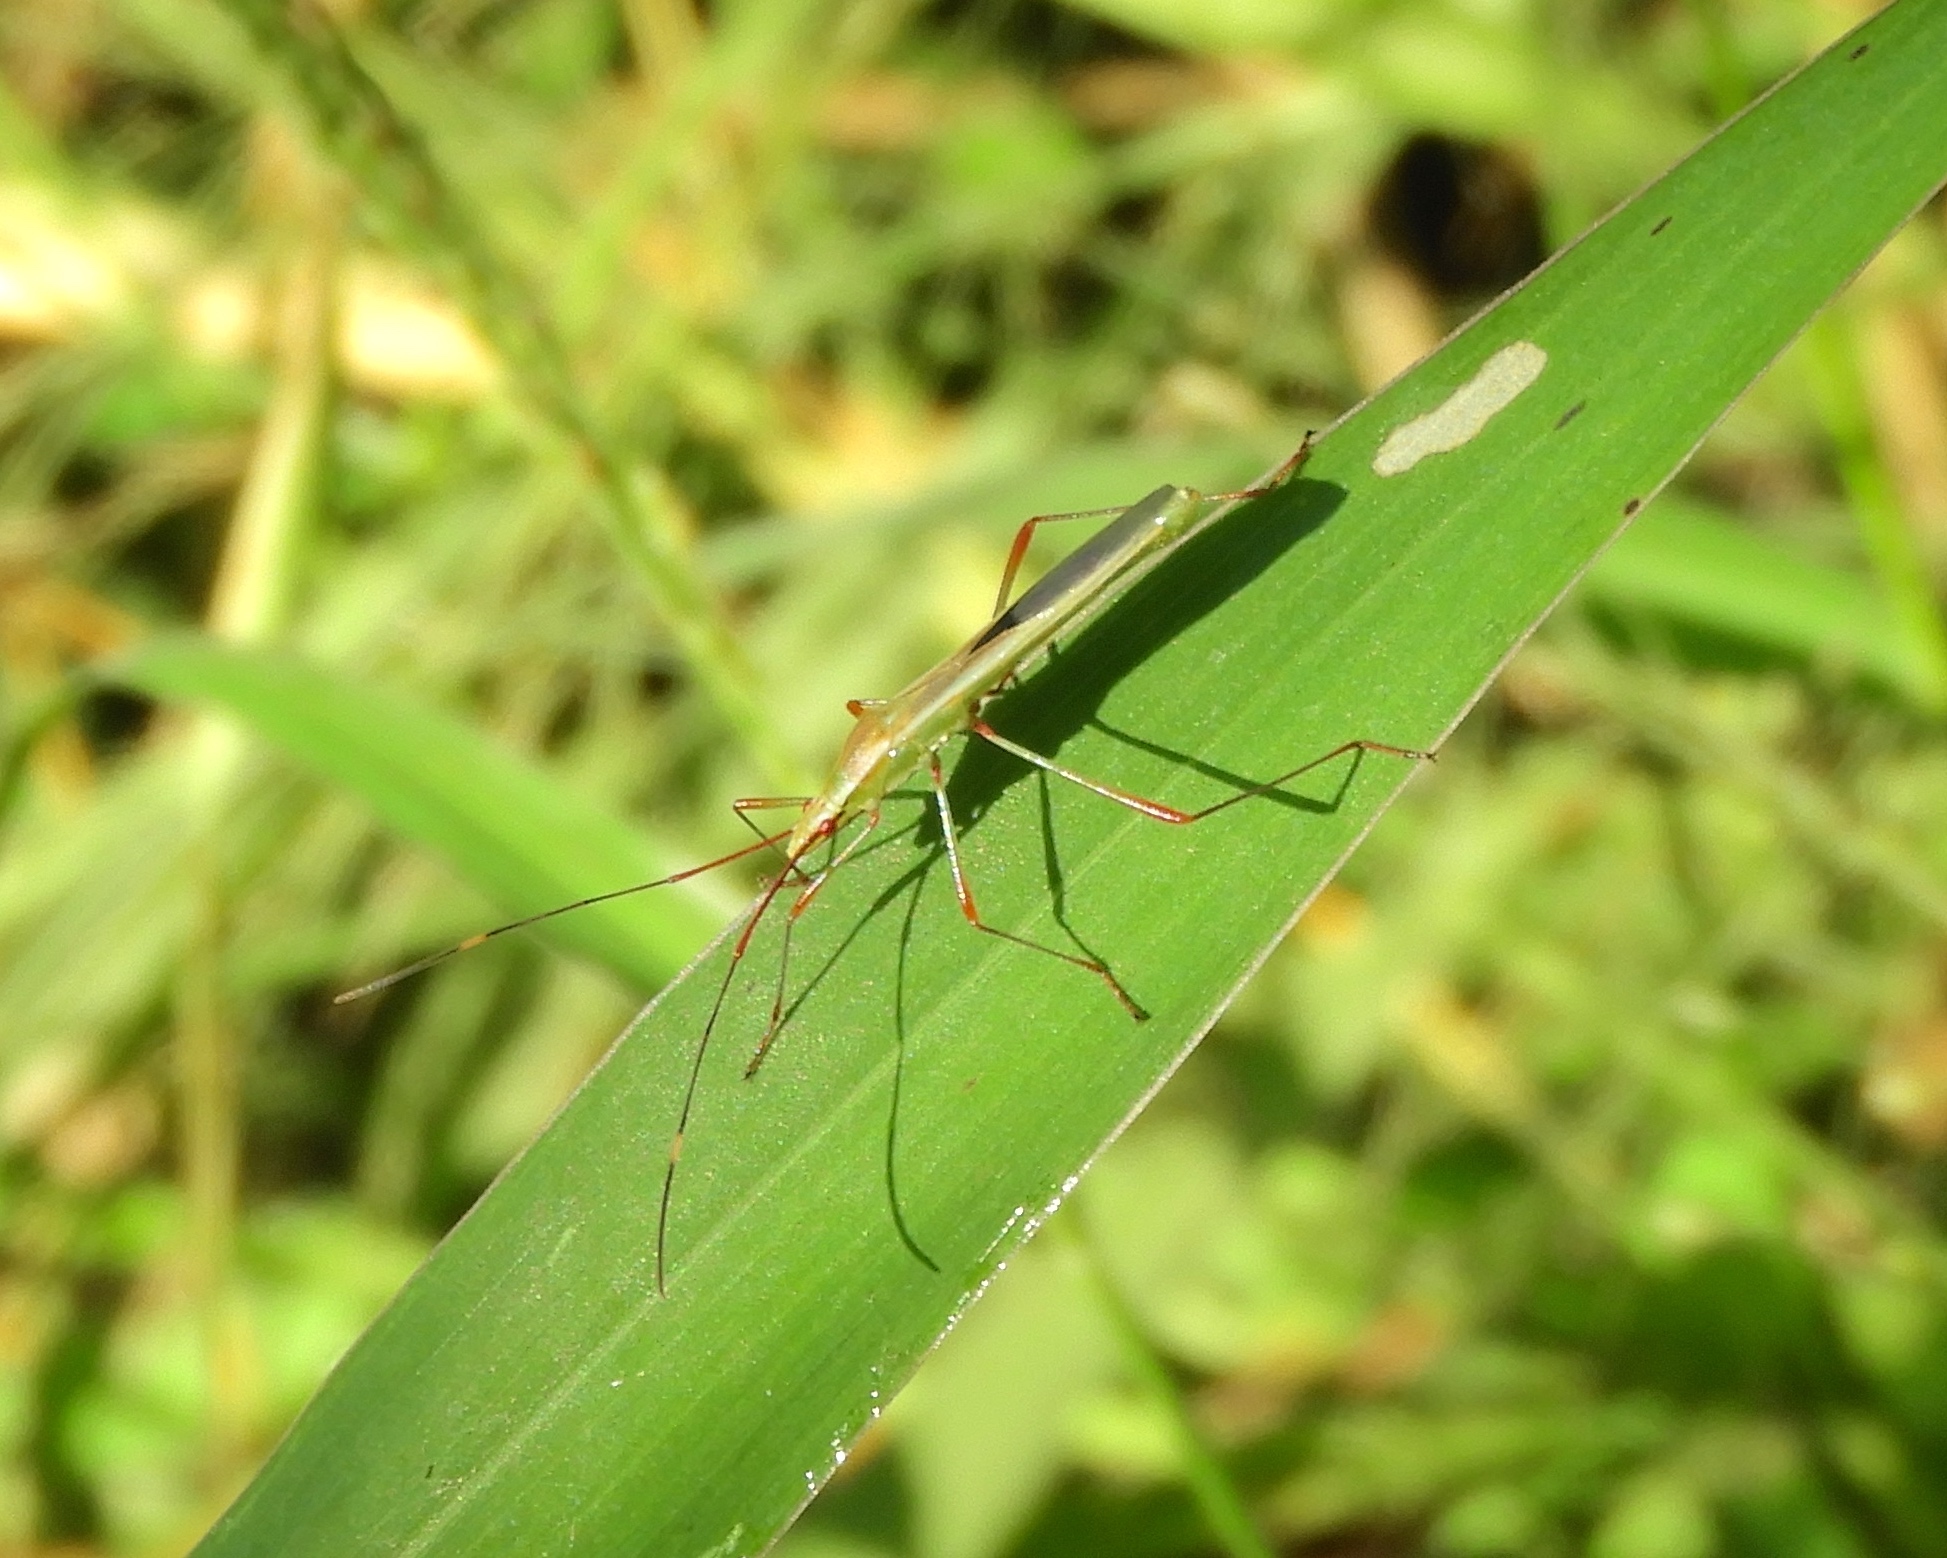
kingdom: Animalia
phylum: Arthropoda
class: Insecta
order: Hemiptera
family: Alydidae
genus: Stenocoris
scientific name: Stenocoris
